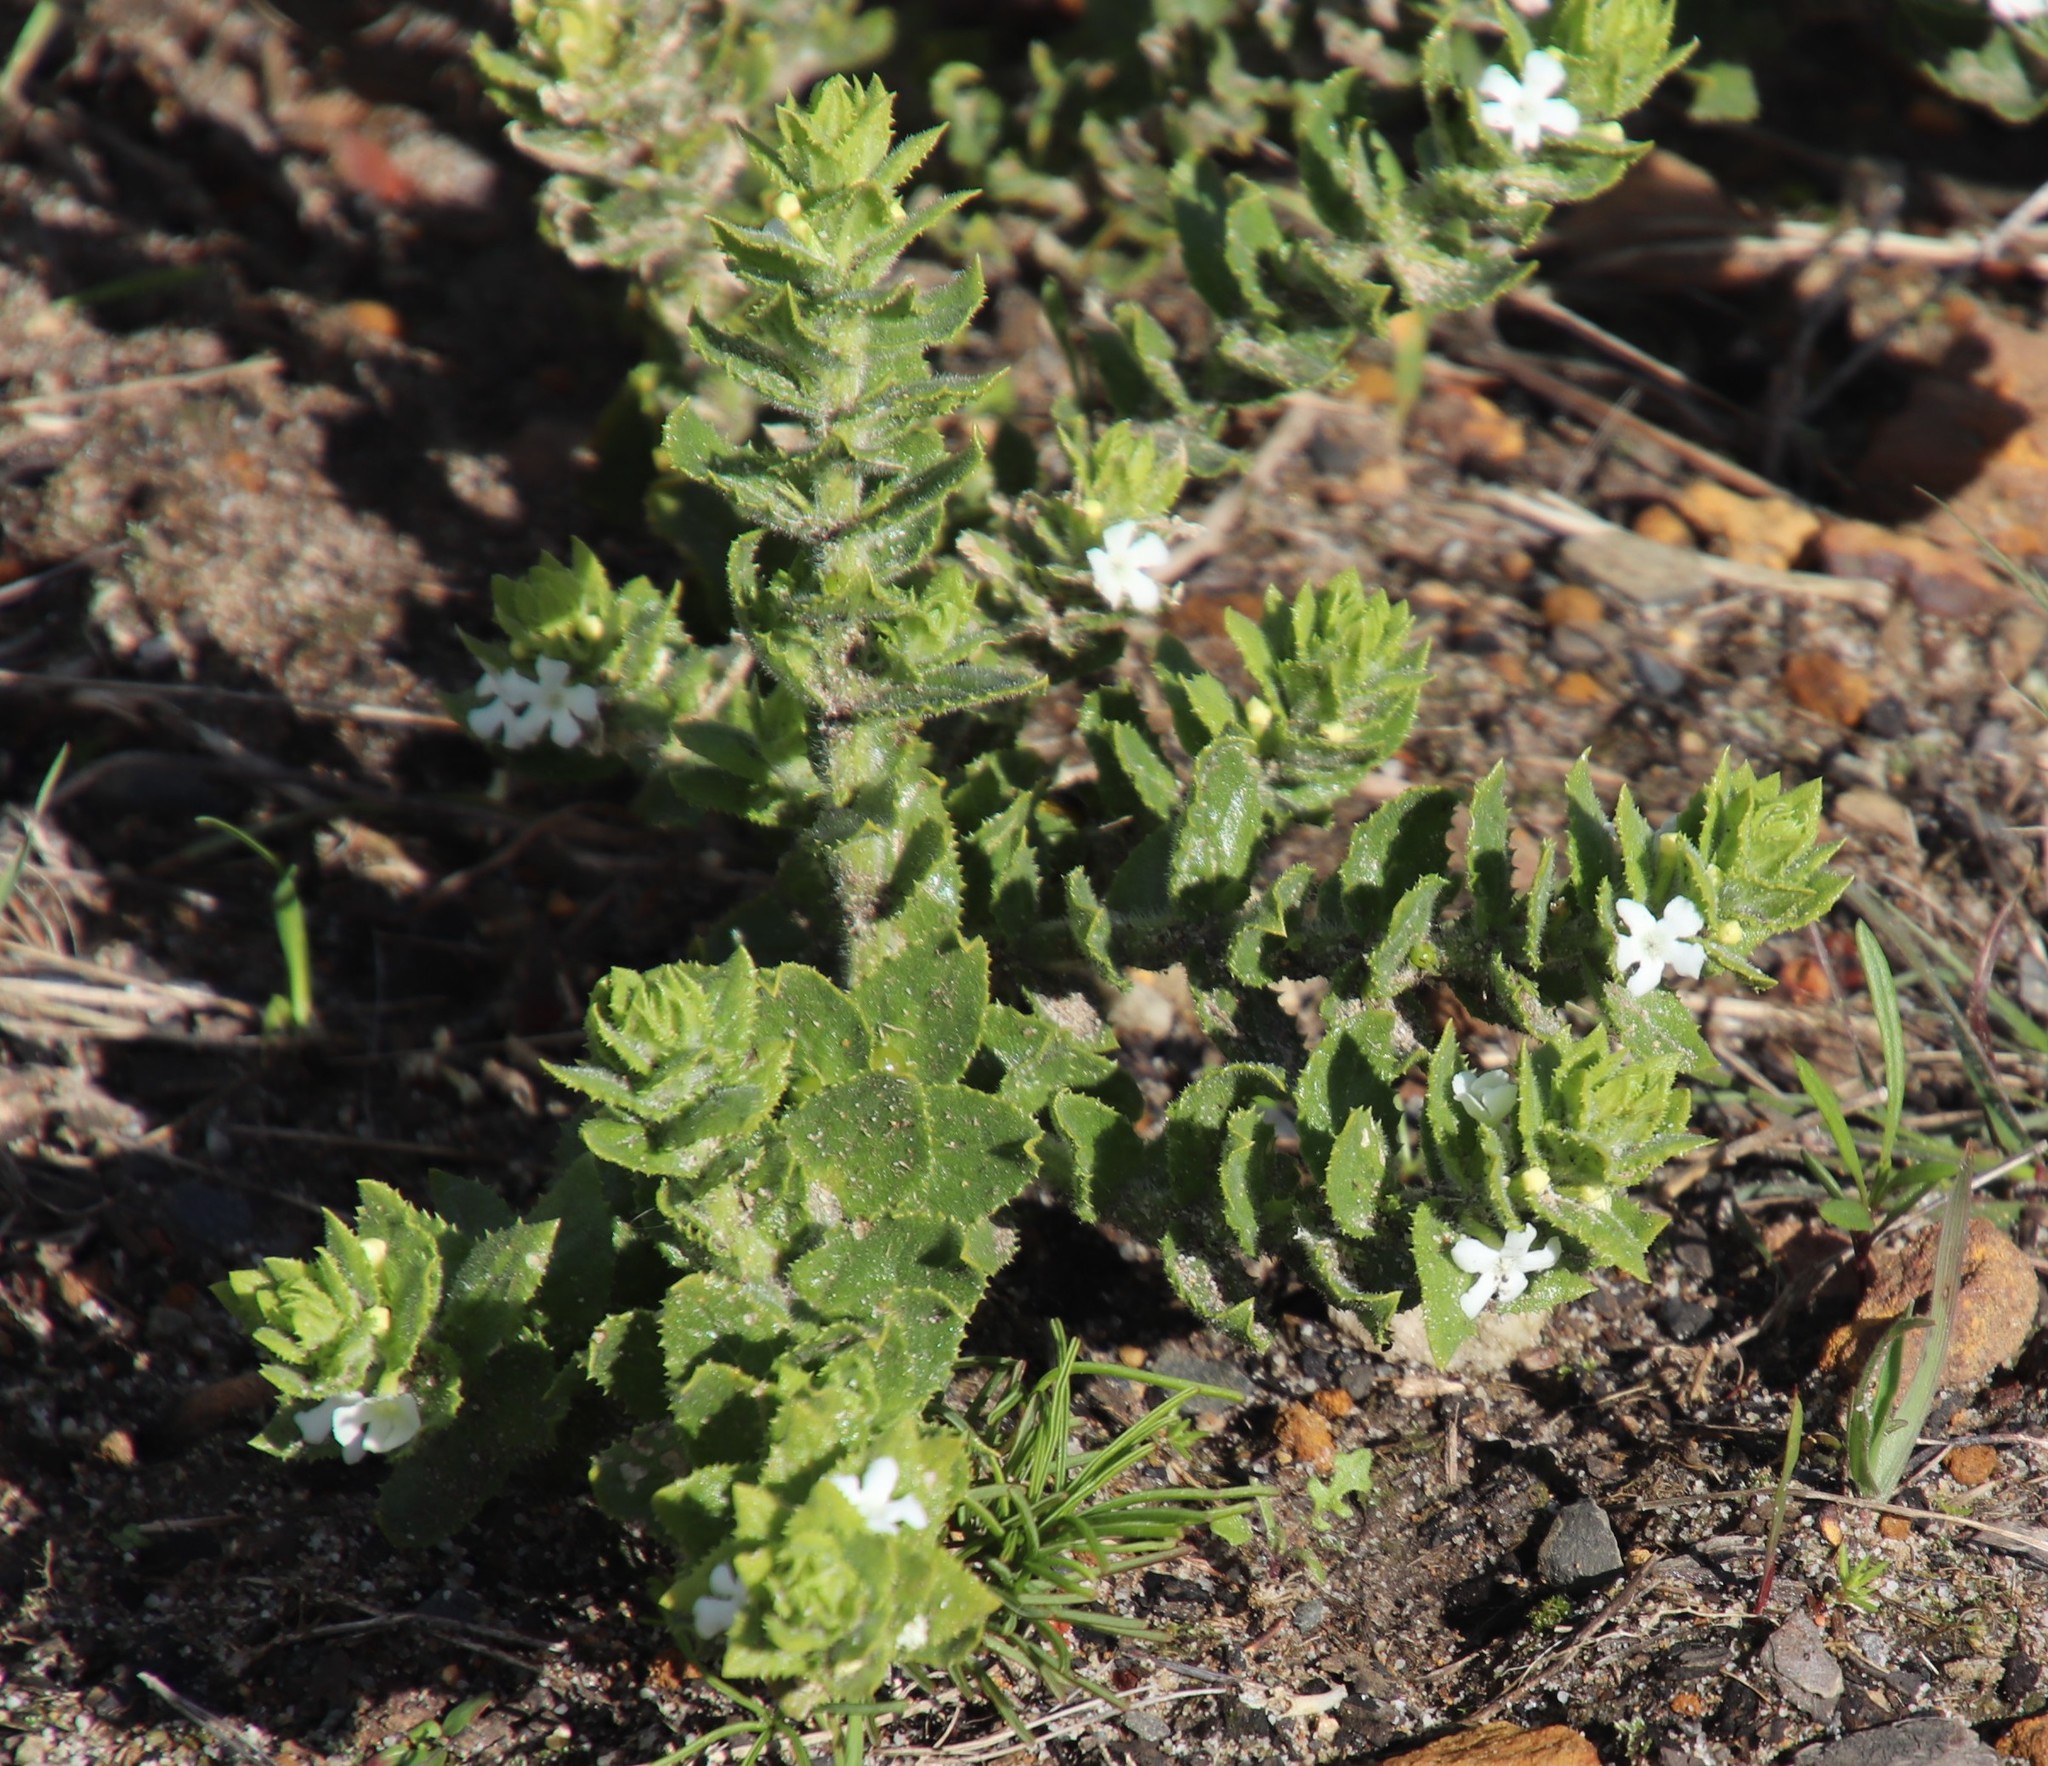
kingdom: Plantae
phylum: Tracheophyta
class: Magnoliopsida
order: Lamiales
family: Scrophulariaceae
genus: Oftia
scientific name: Oftia africana
